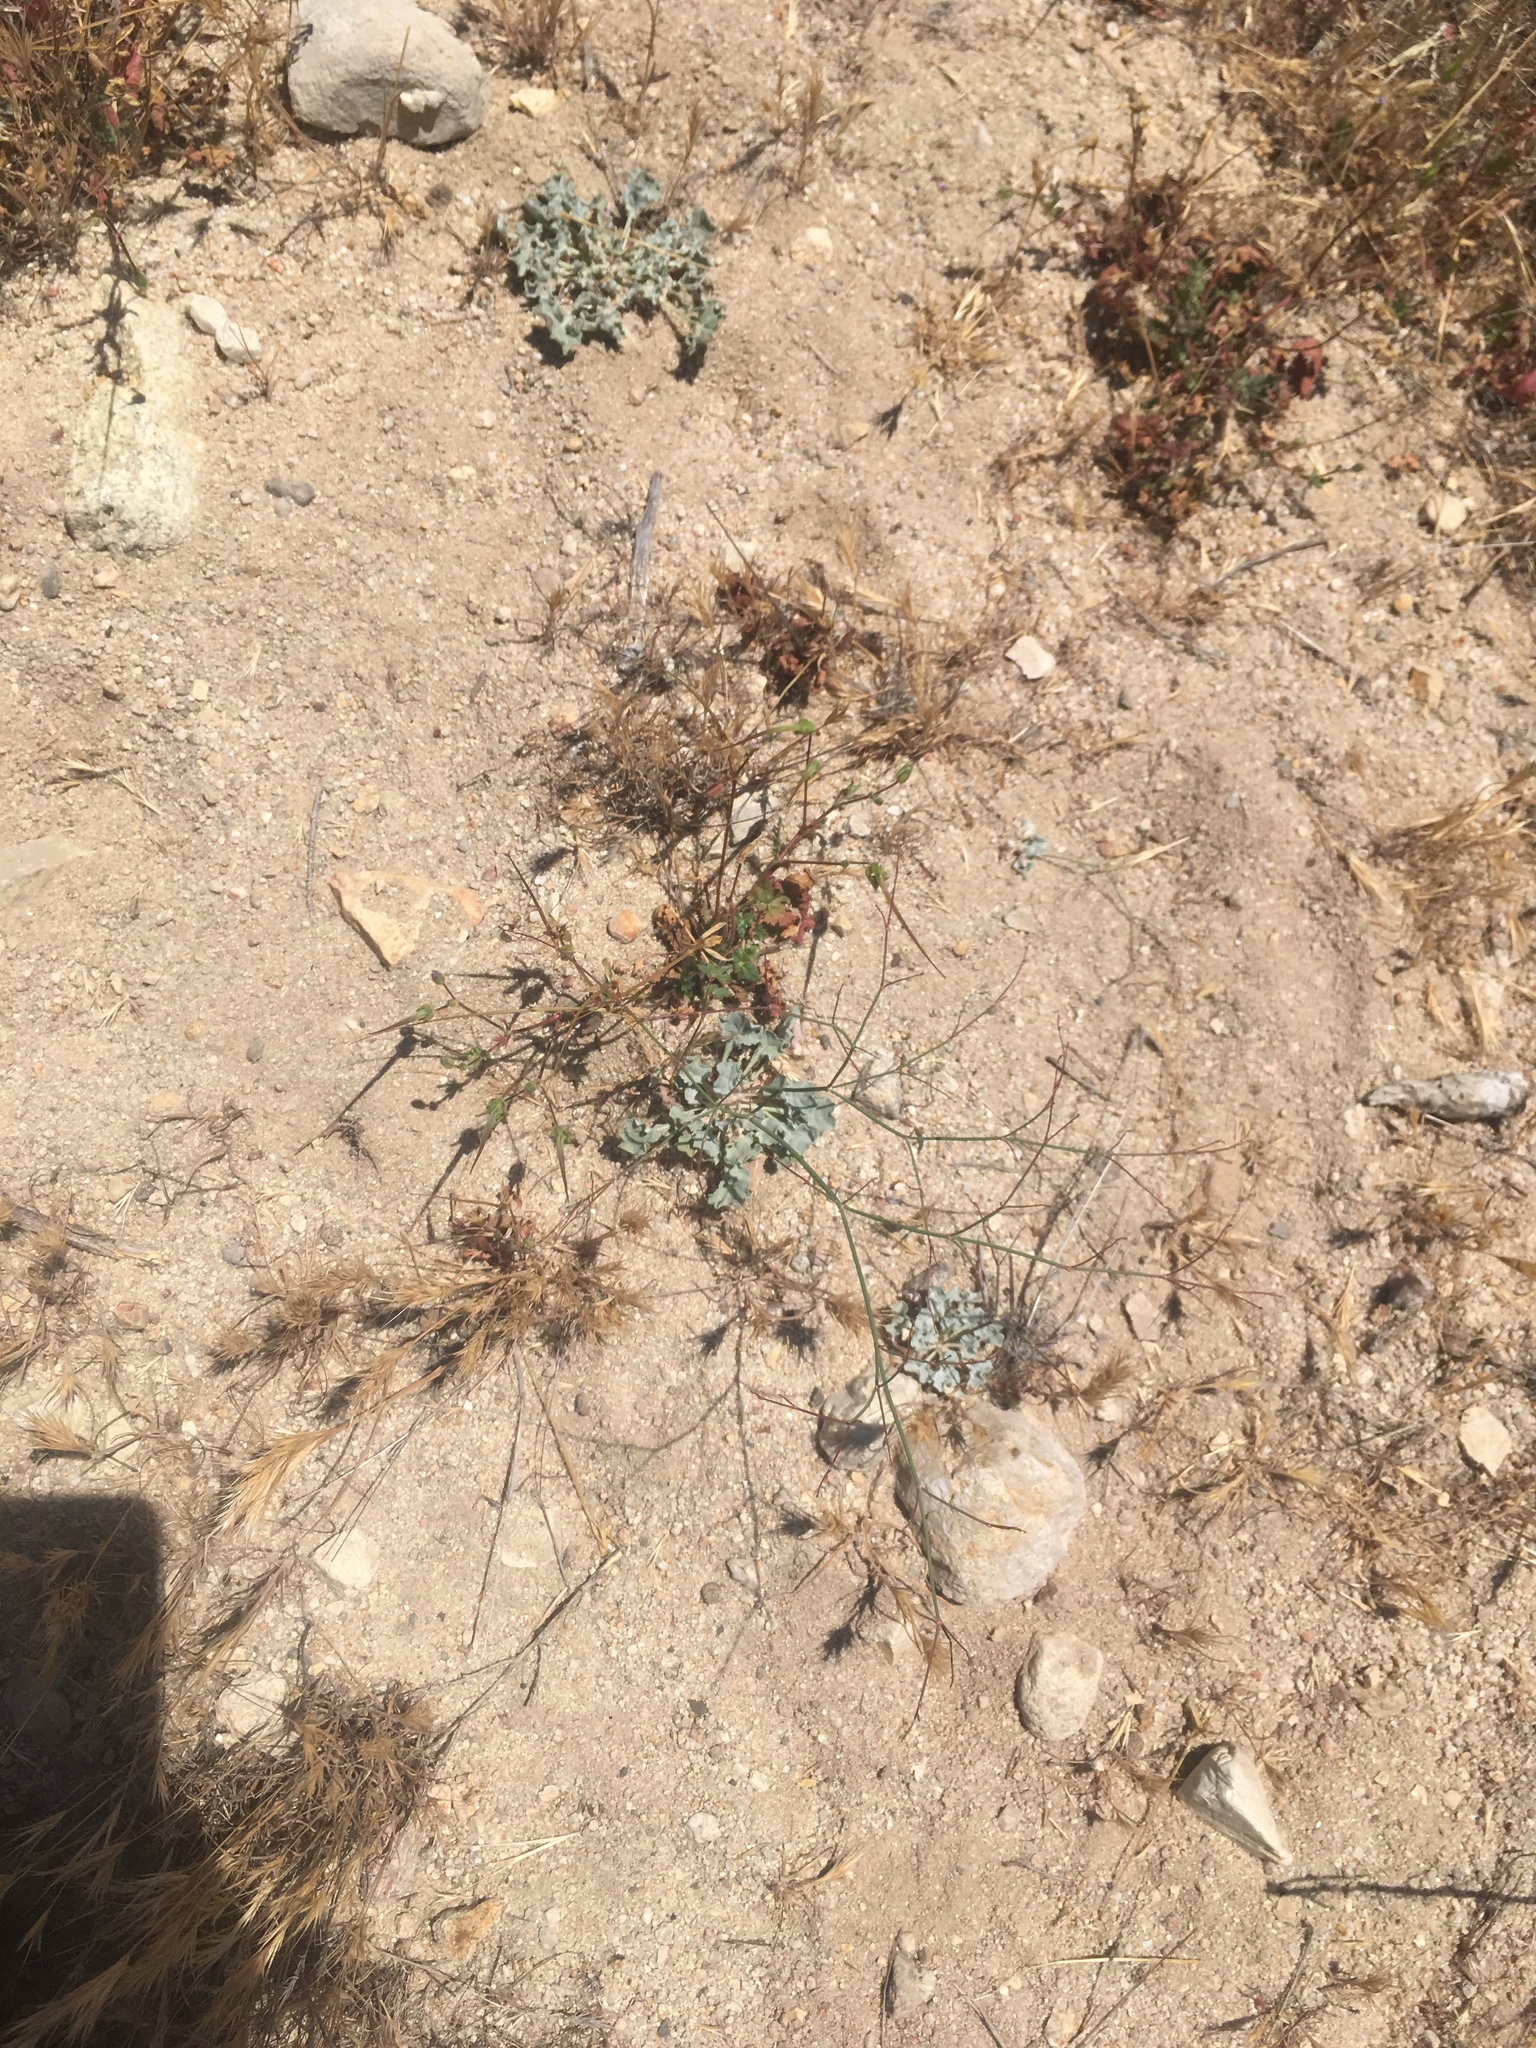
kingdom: Plantae
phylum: Tracheophyta
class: Magnoliopsida
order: Caryophyllales
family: Polygonaceae
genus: Eriogonum
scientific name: Eriogonum elegans
